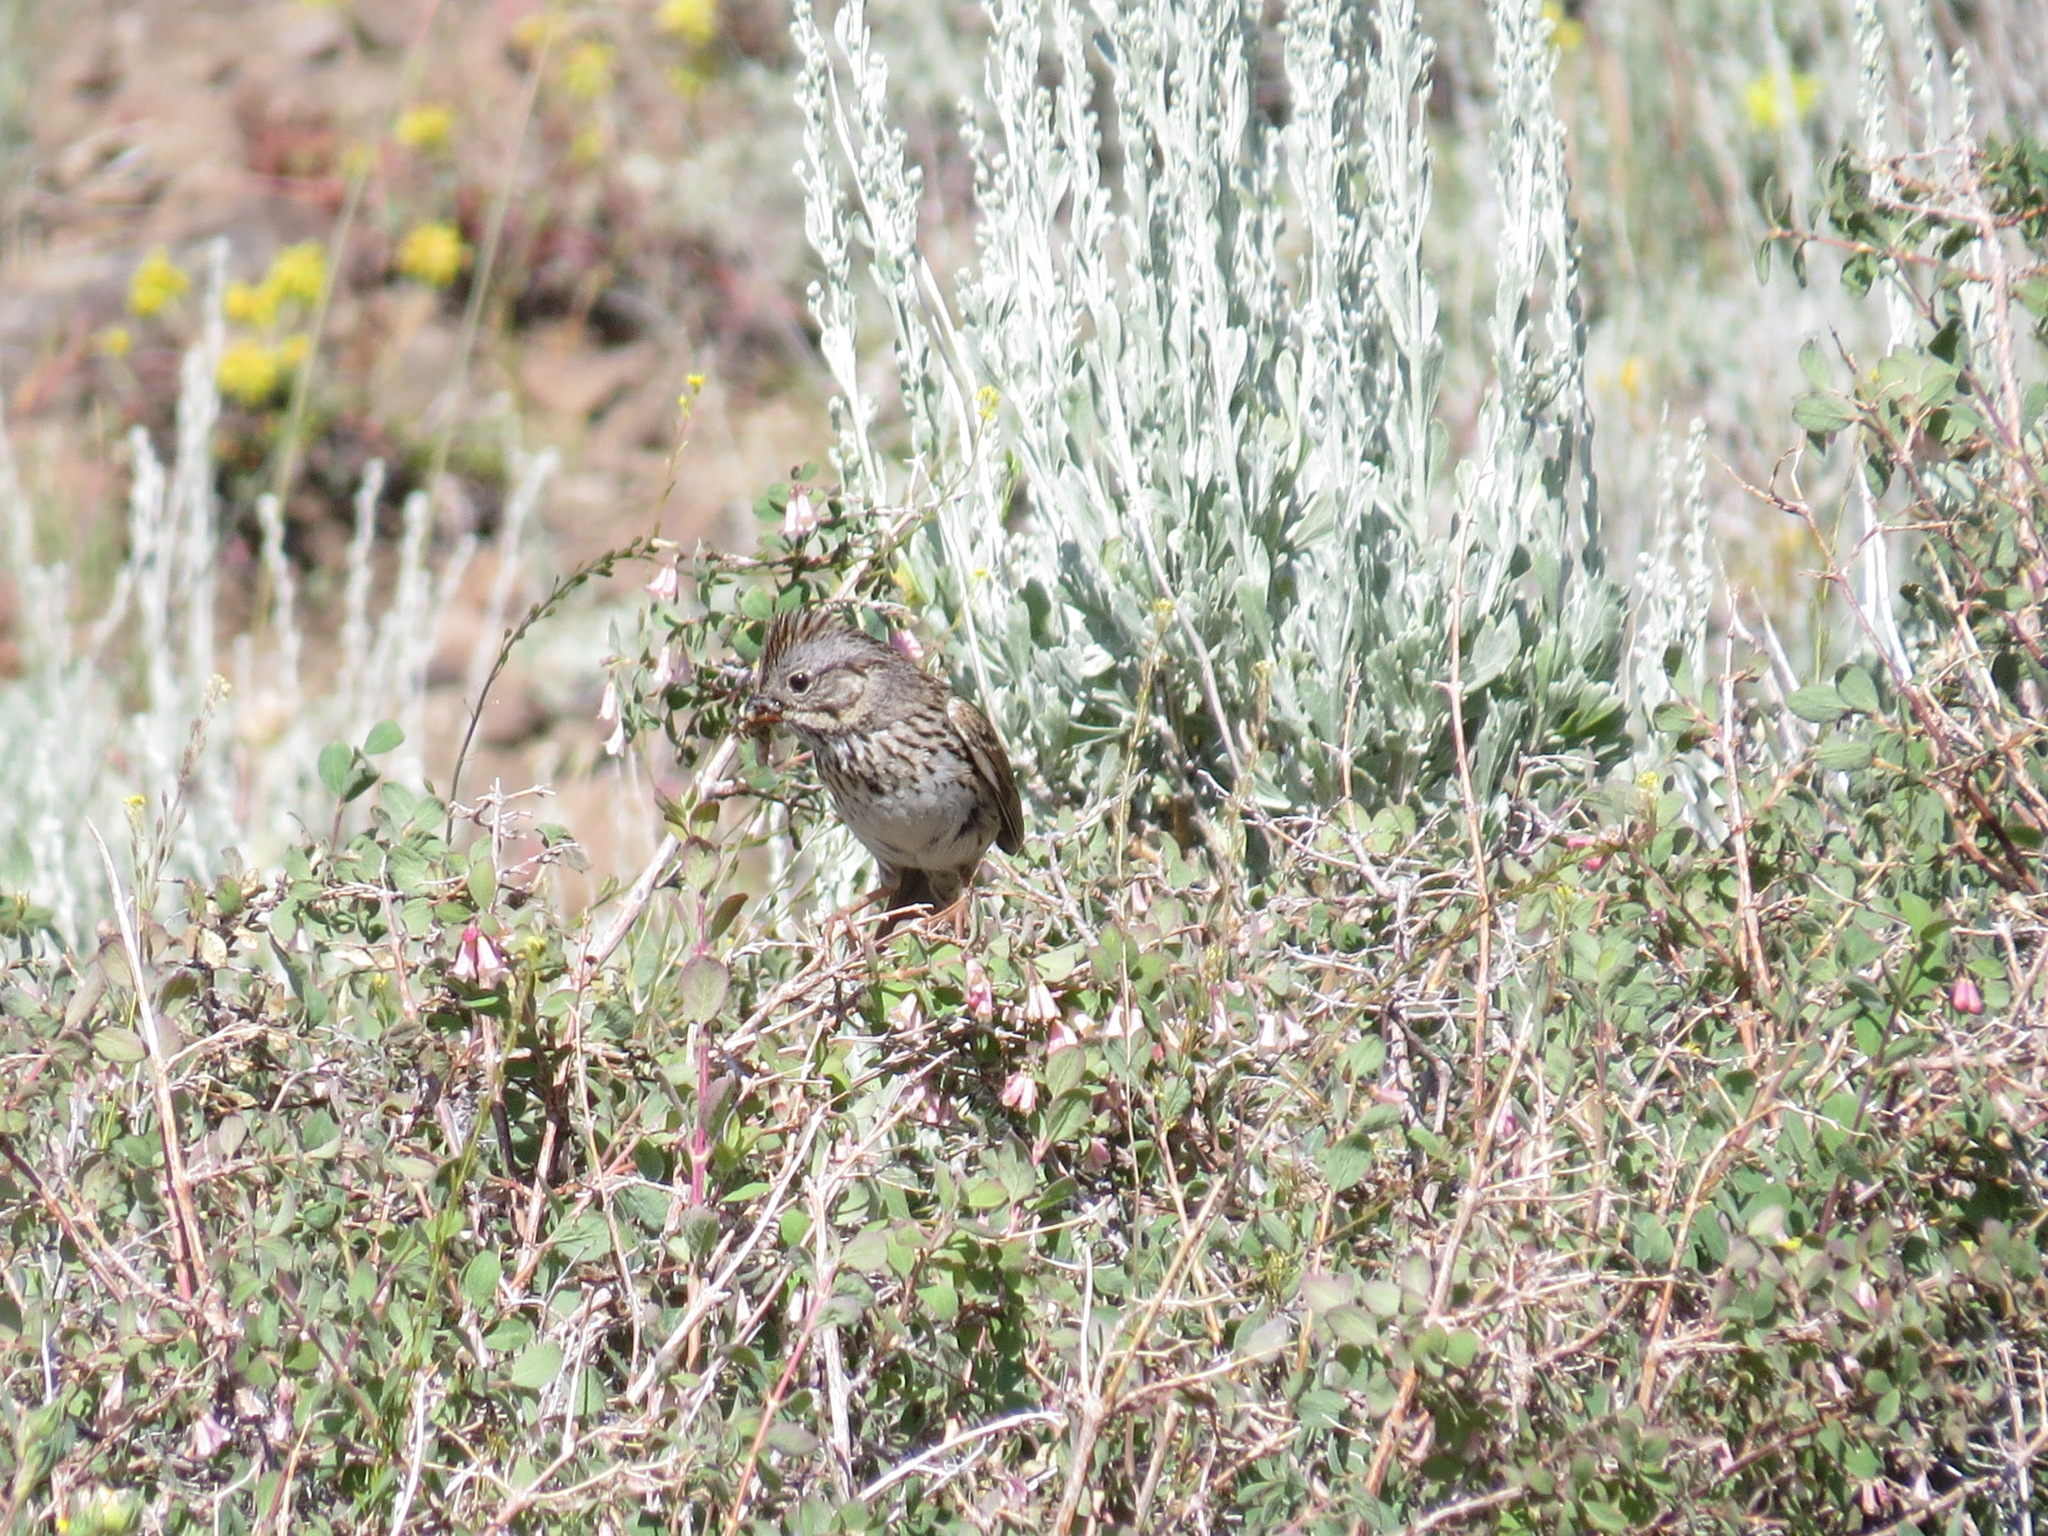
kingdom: Animalia
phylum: Chordata
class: Aves
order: Passeriformes
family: Passerellidae
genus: Melospiza
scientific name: Melospiza lincolnii
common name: Lincoln's sparrow
